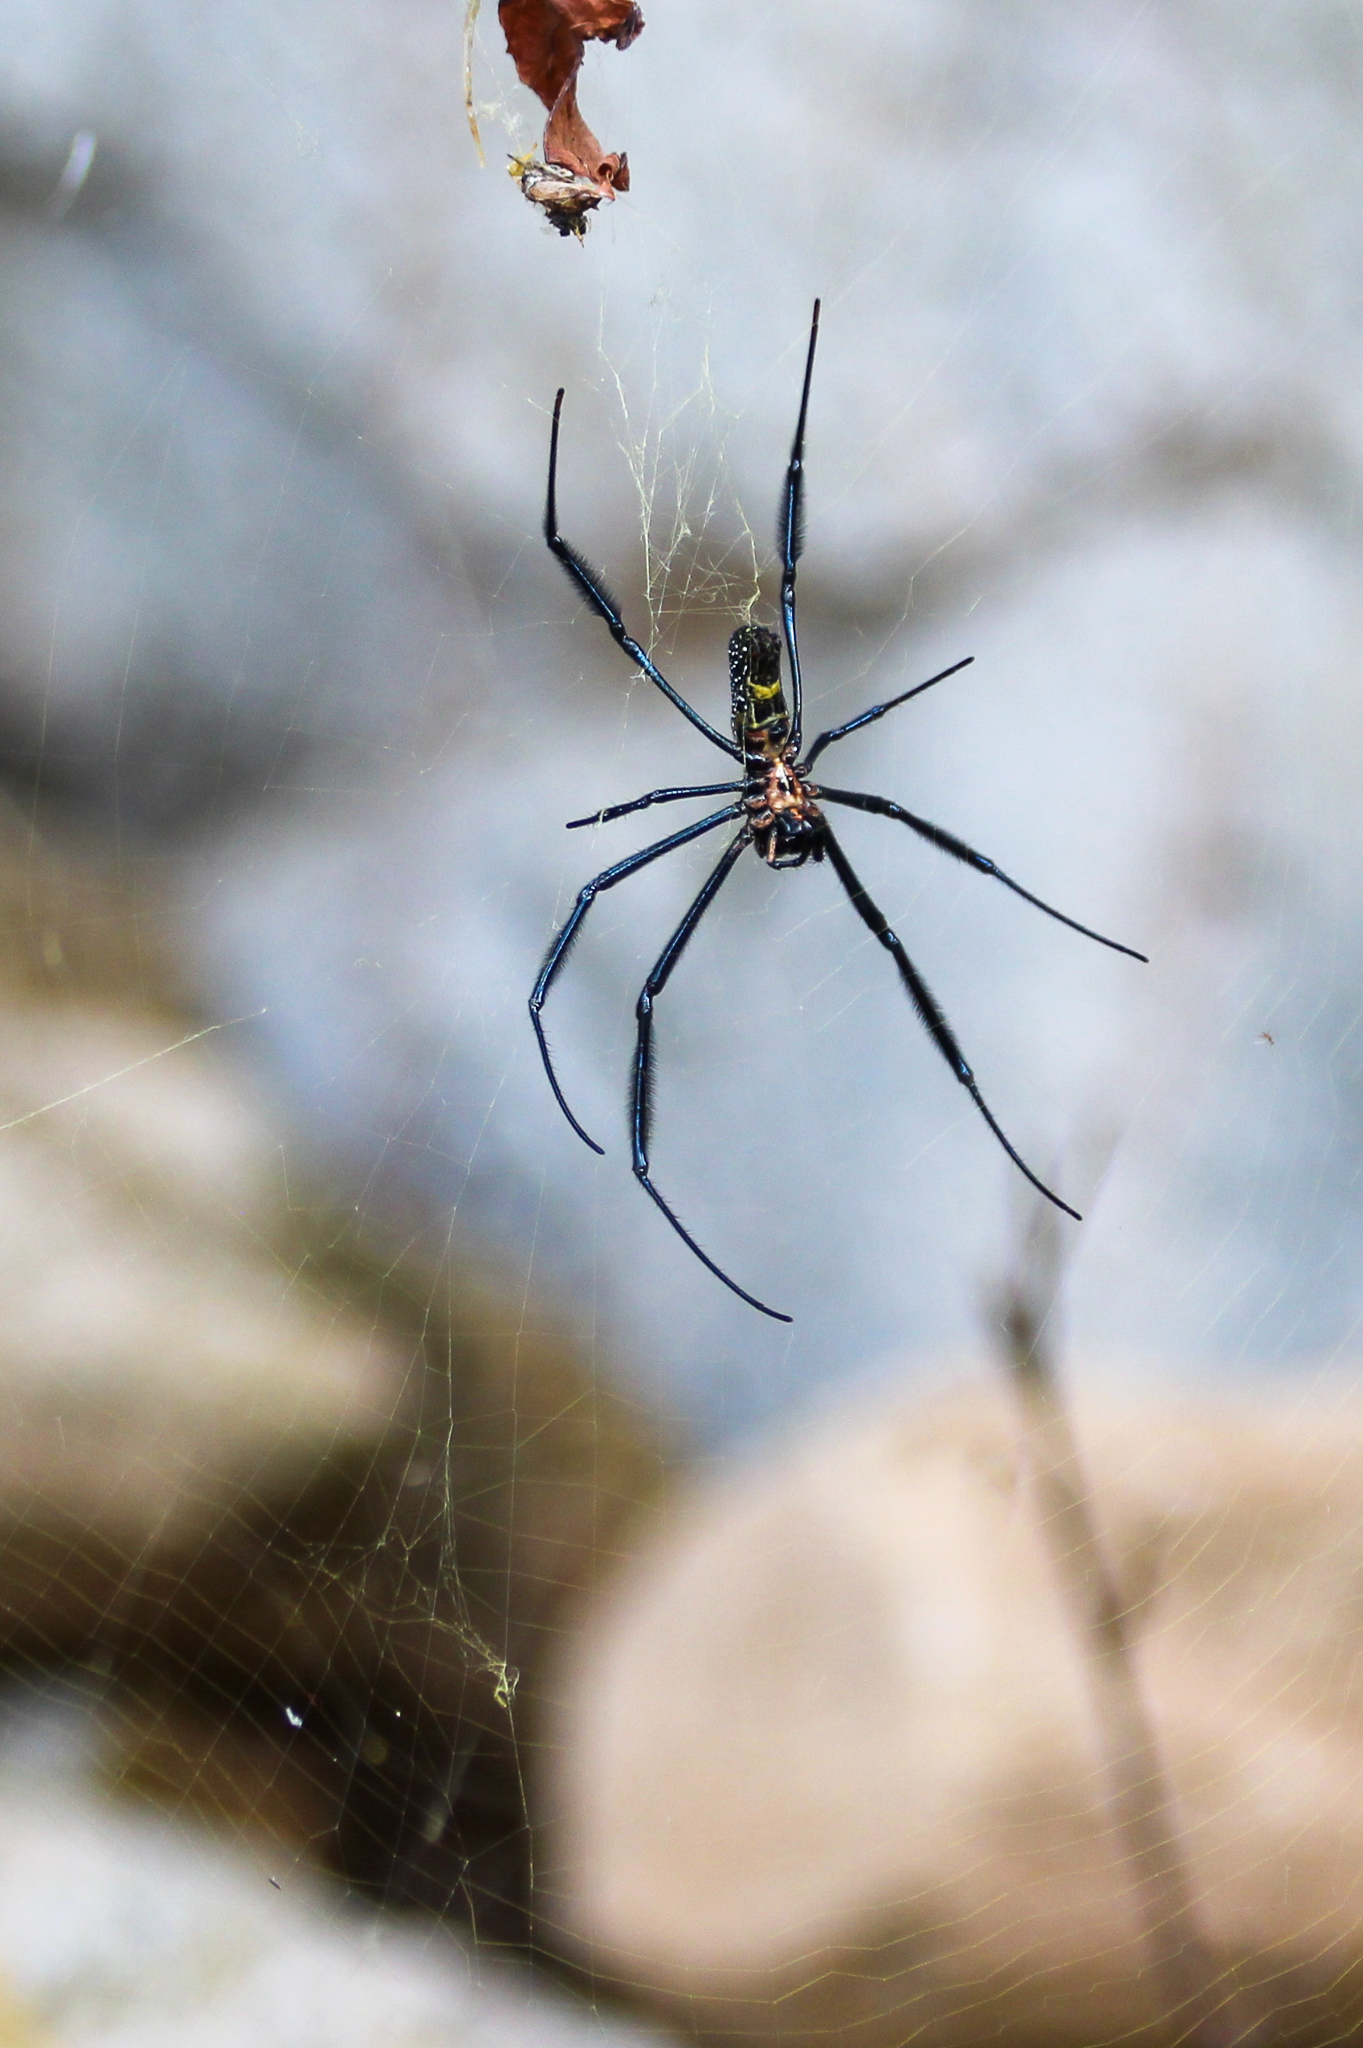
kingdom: Animalia
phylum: Arthropoda
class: Arachnida
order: Araneae
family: Araneidae
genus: Trichonephila
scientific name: Trichonephila fenestrata
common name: Hairy golden orb weaver
